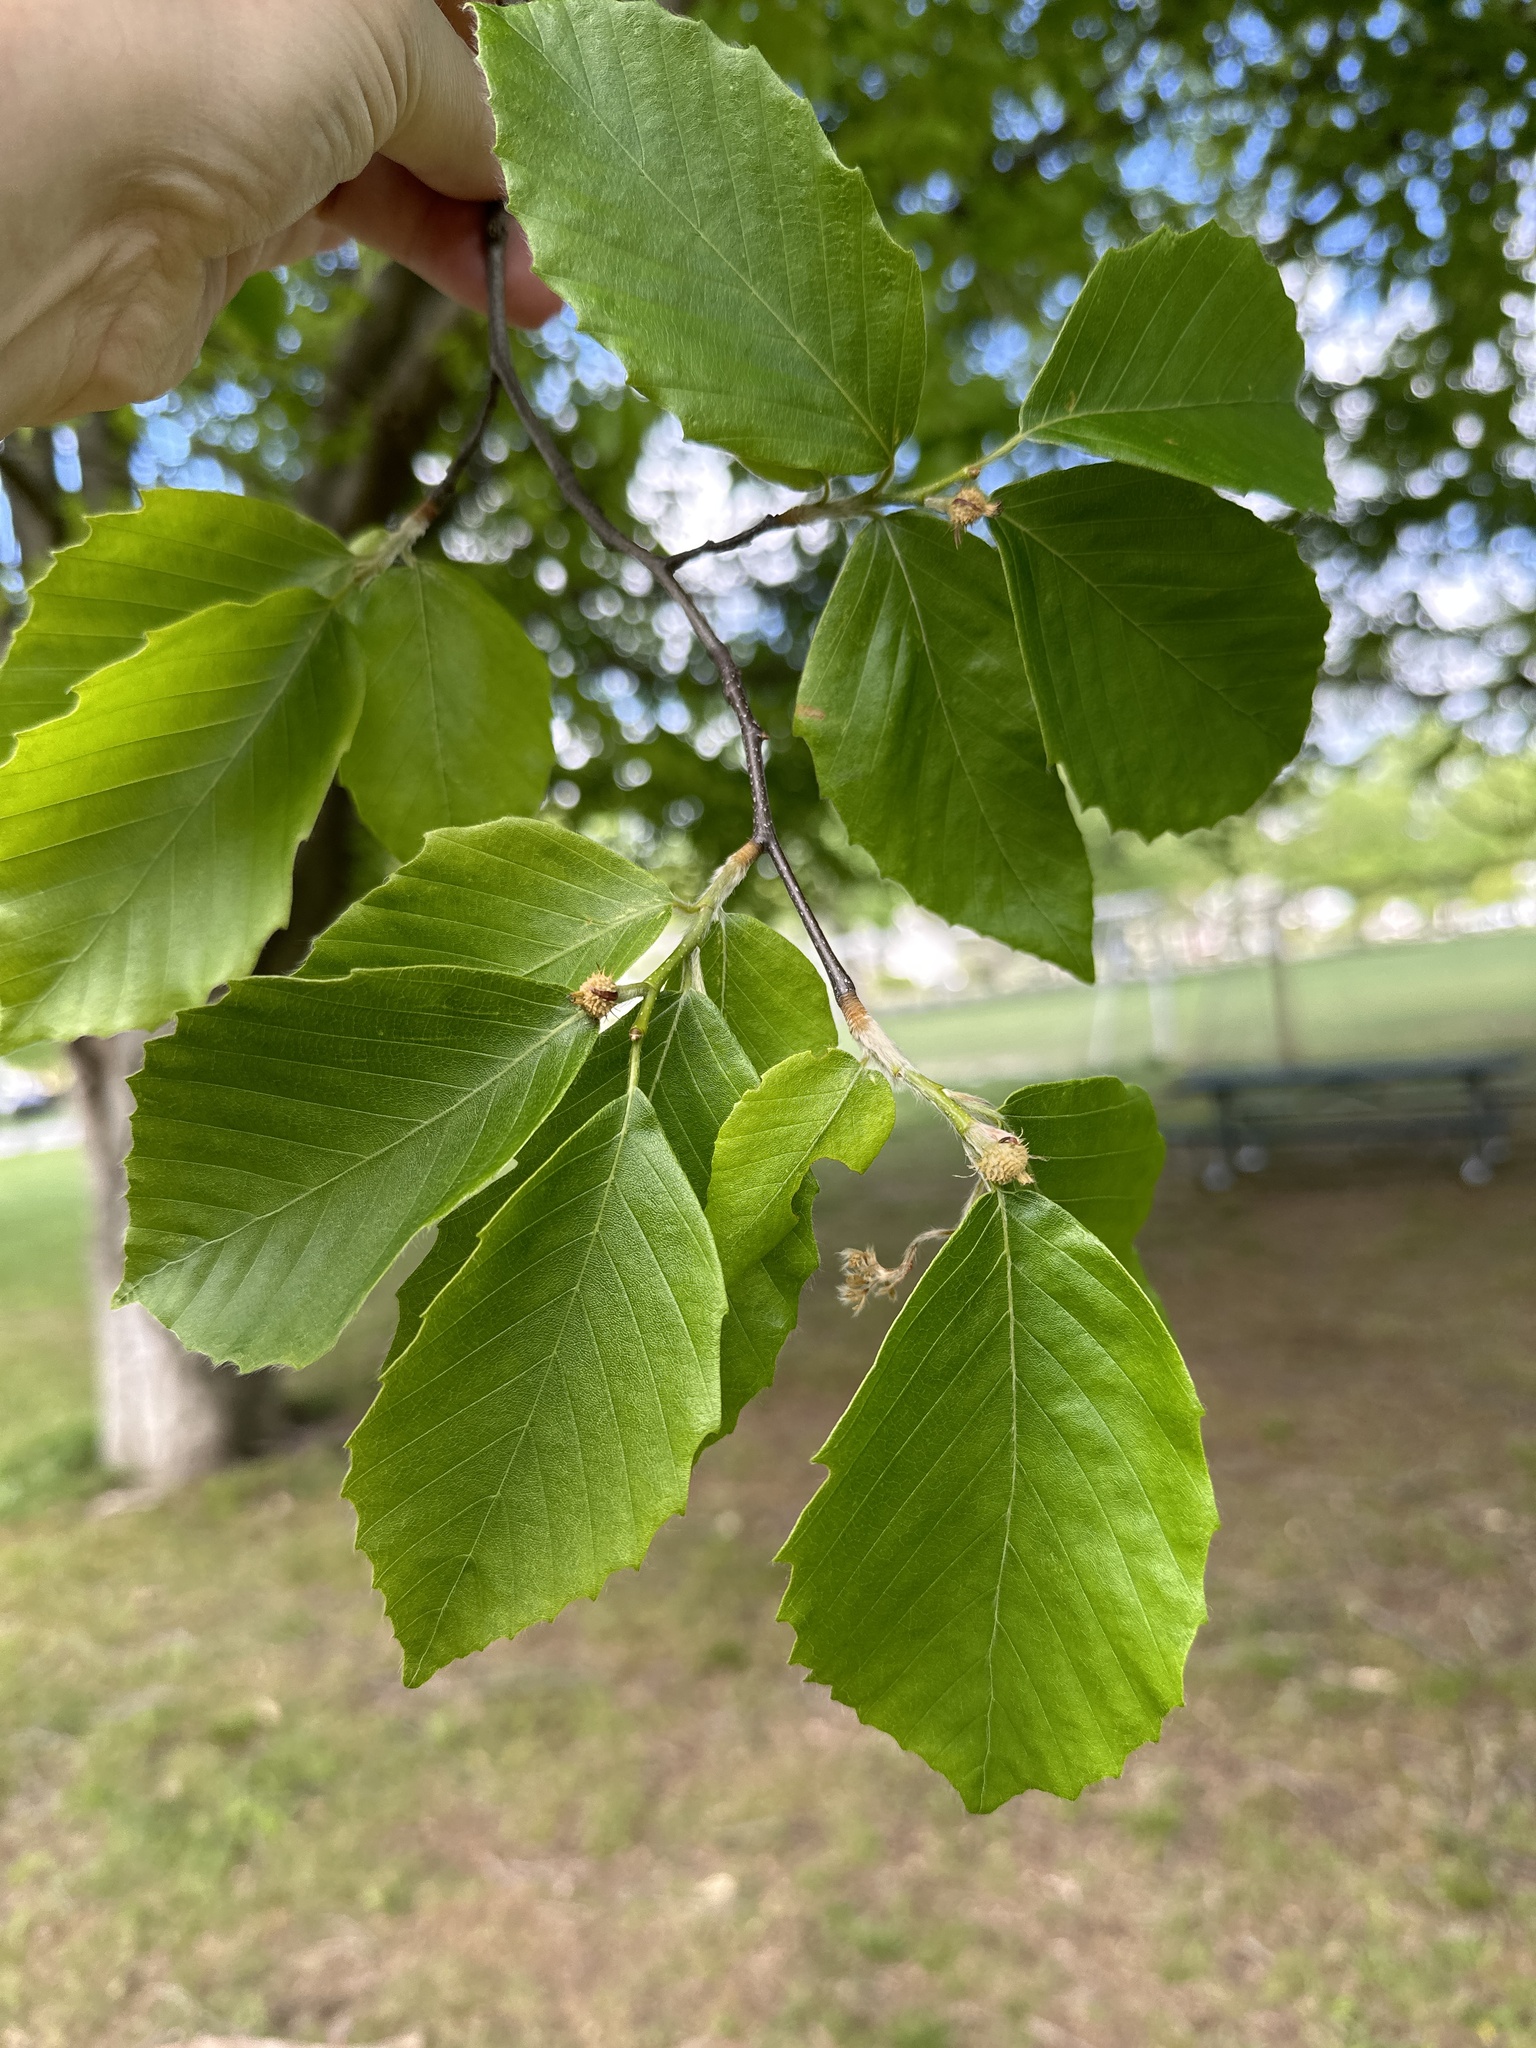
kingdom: Plantae
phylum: Tracheophyta
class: Magnoliopsida
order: Fagales
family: Fagaceae
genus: Fagus
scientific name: Fagus grandifolia
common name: American beech
